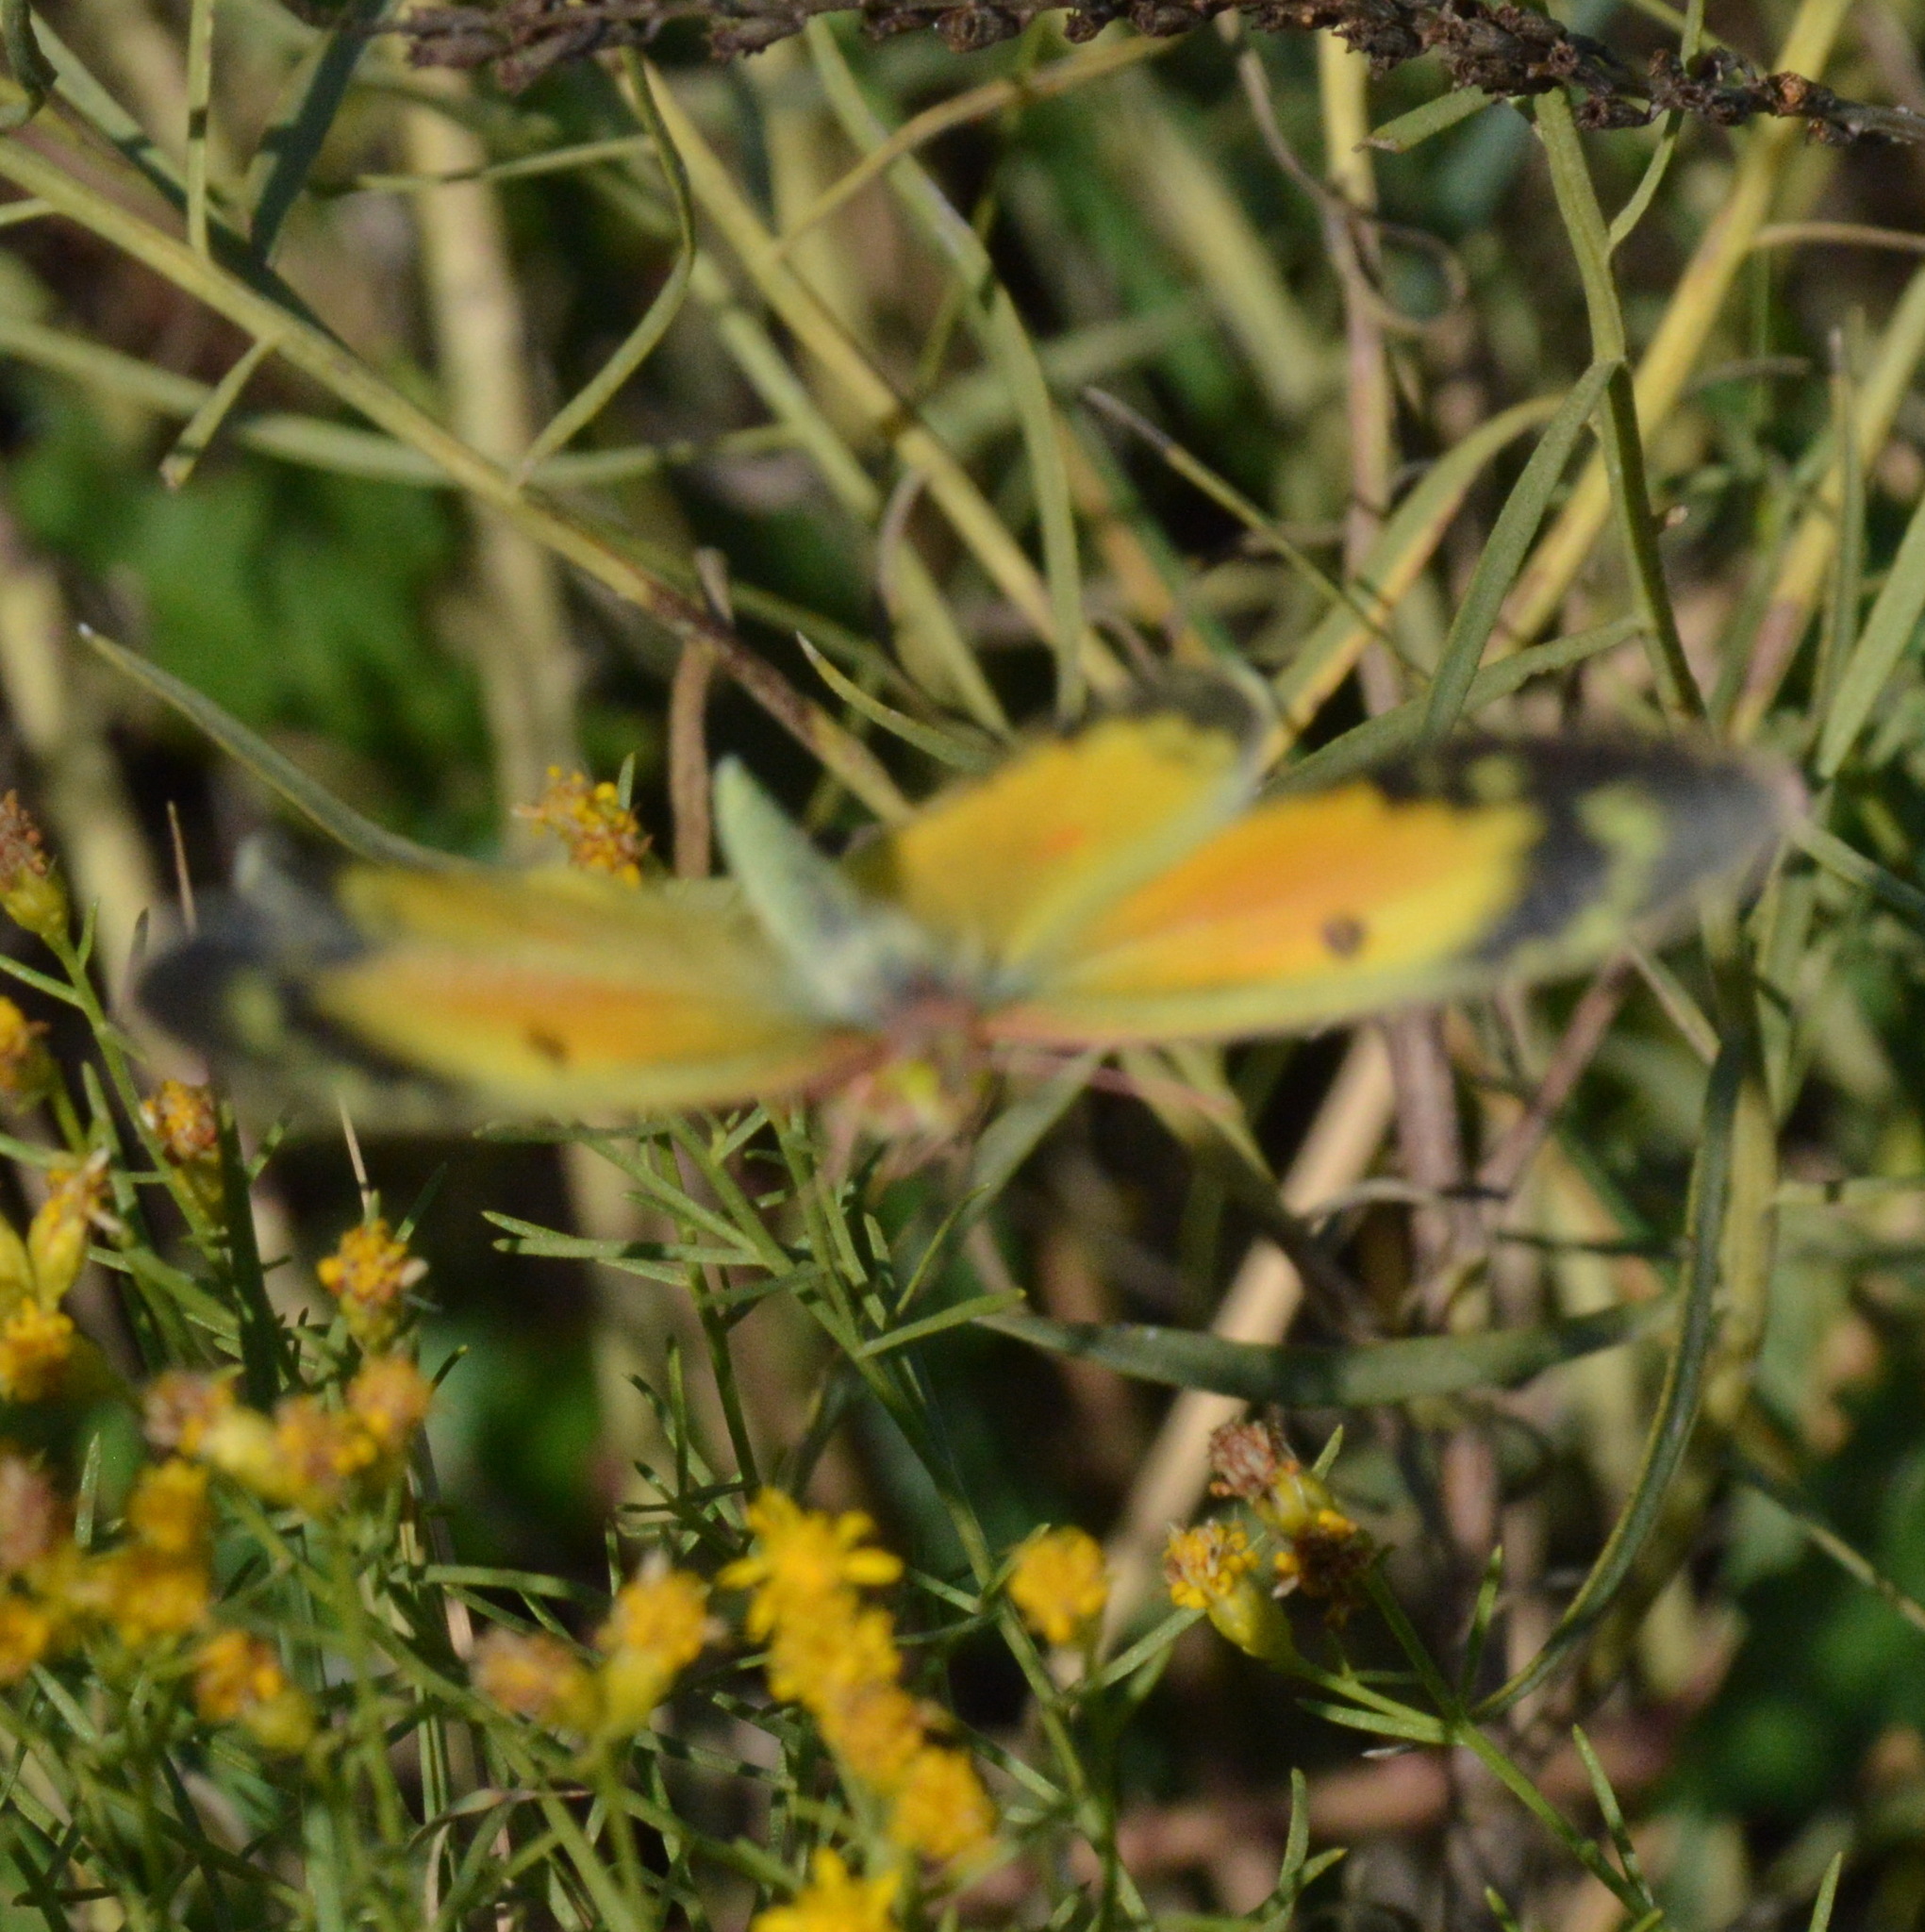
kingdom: Animalia
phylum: Arthropoda
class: Insecta
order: Lepidoptera
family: Pieridae
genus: Colias
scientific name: Colias eurytheme
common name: Alfalfa butterfly
